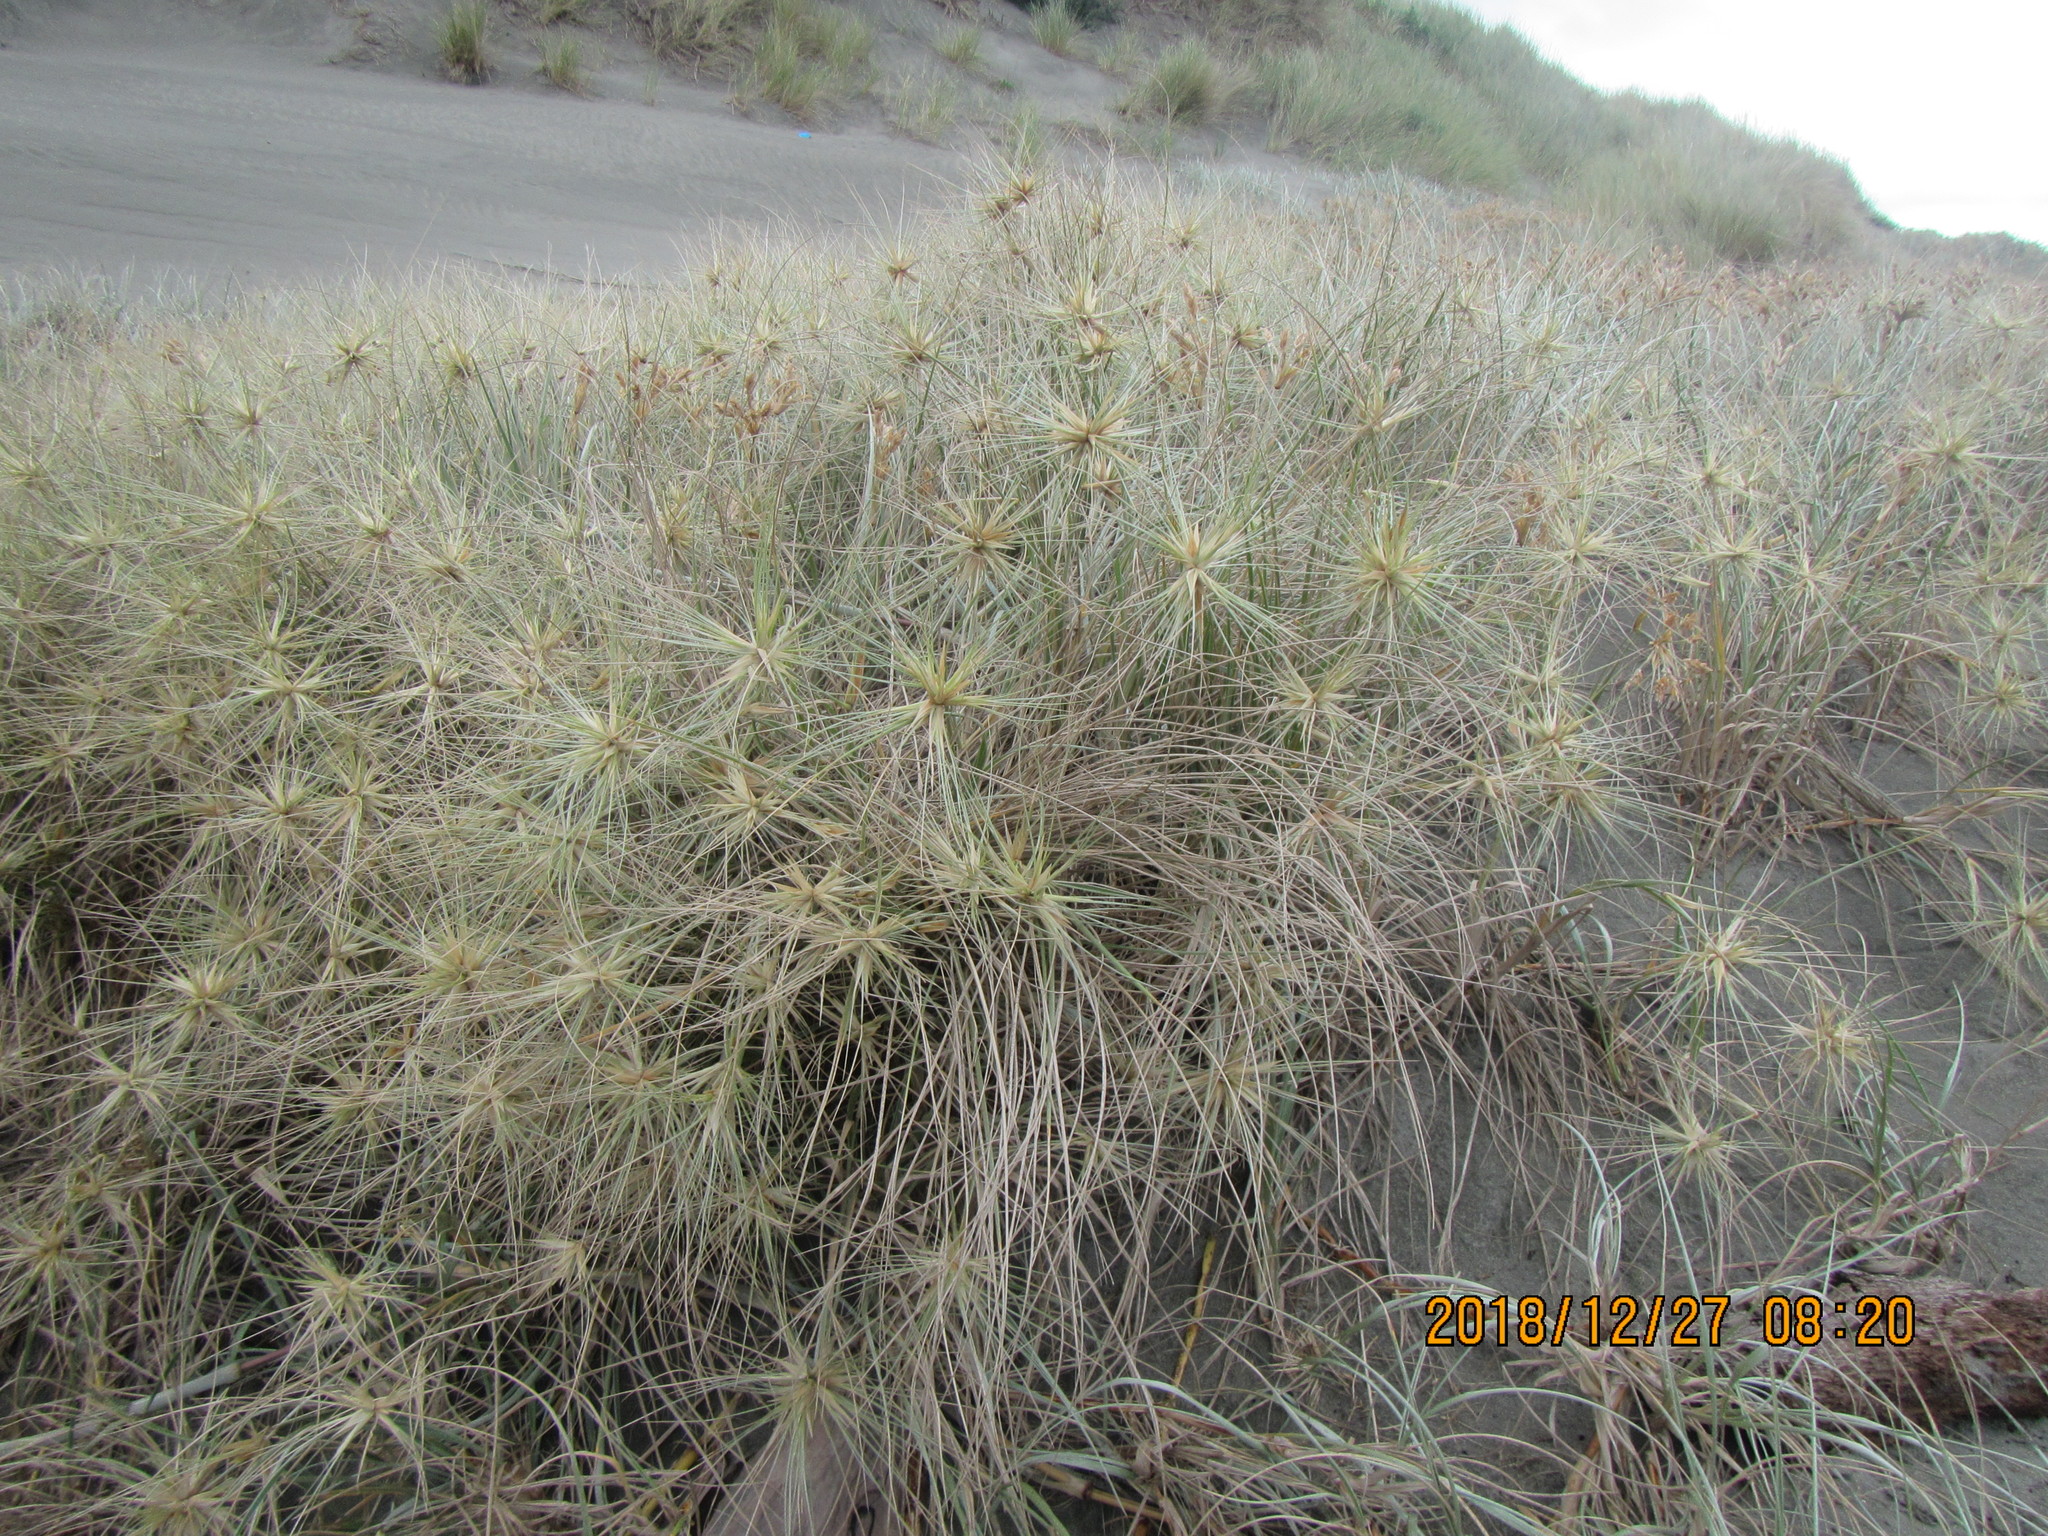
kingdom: Plantae
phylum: Tracheophyta
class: Liliopsida
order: Poales
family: Poaceae
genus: Spinifex
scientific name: Spinifex sericeus
